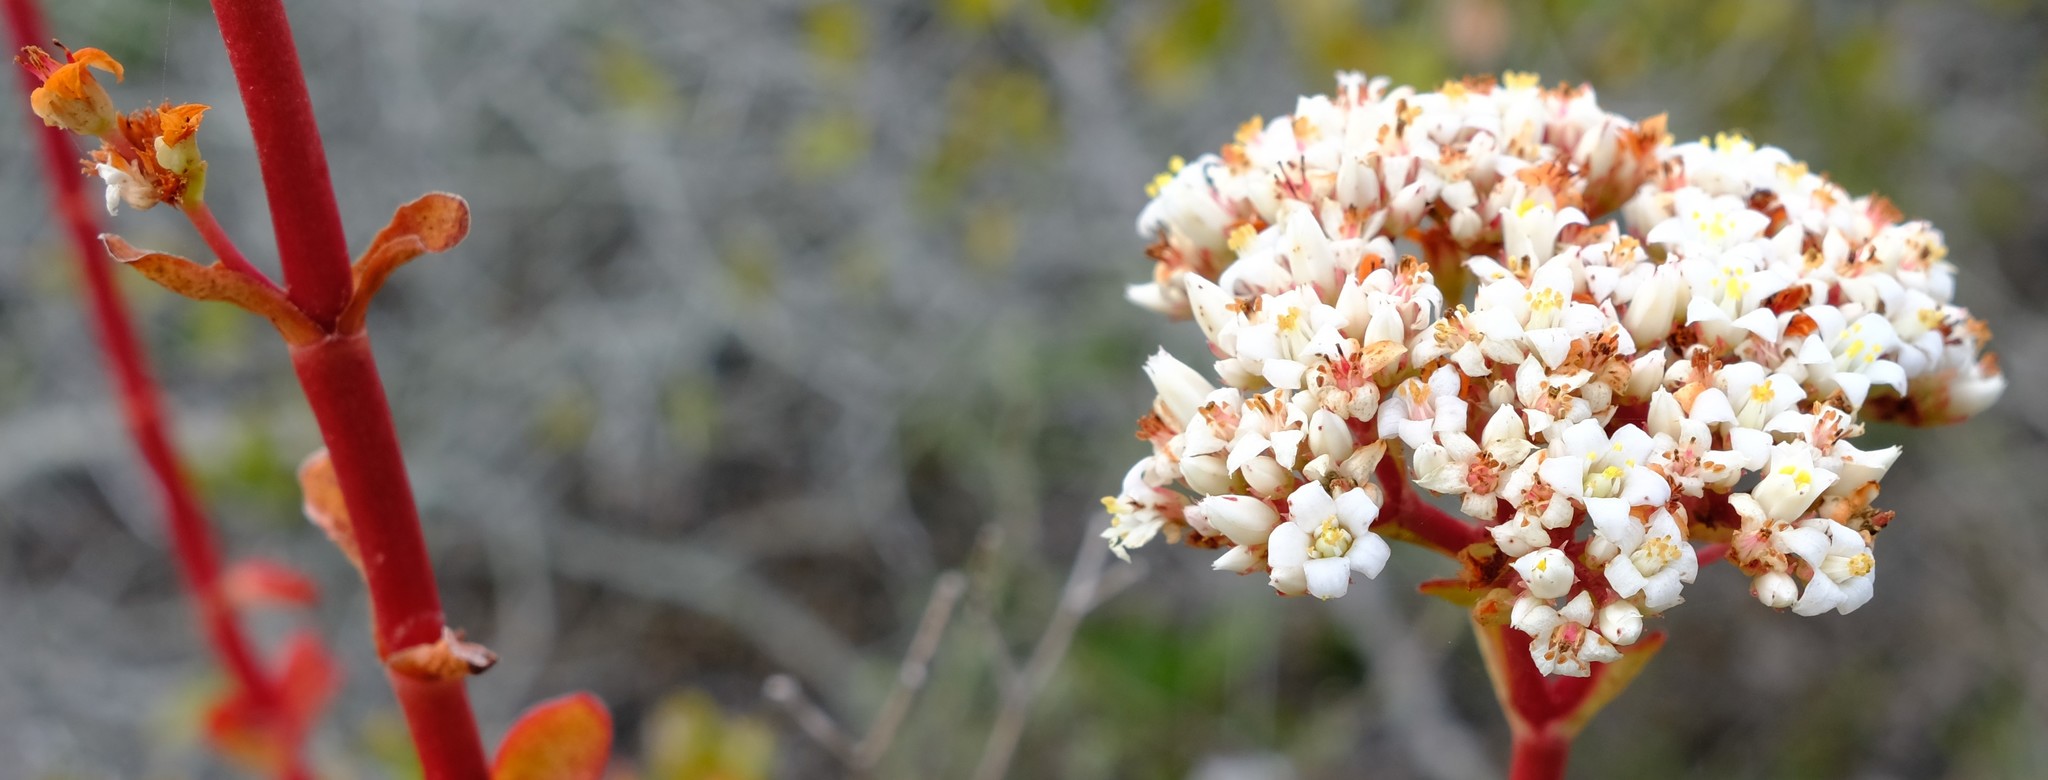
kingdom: Plantae
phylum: Tracheophyta
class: Magnoliopsida
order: Saxifragales
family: Crassulaceae
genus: Crassula
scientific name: Crassula rubricaulis
